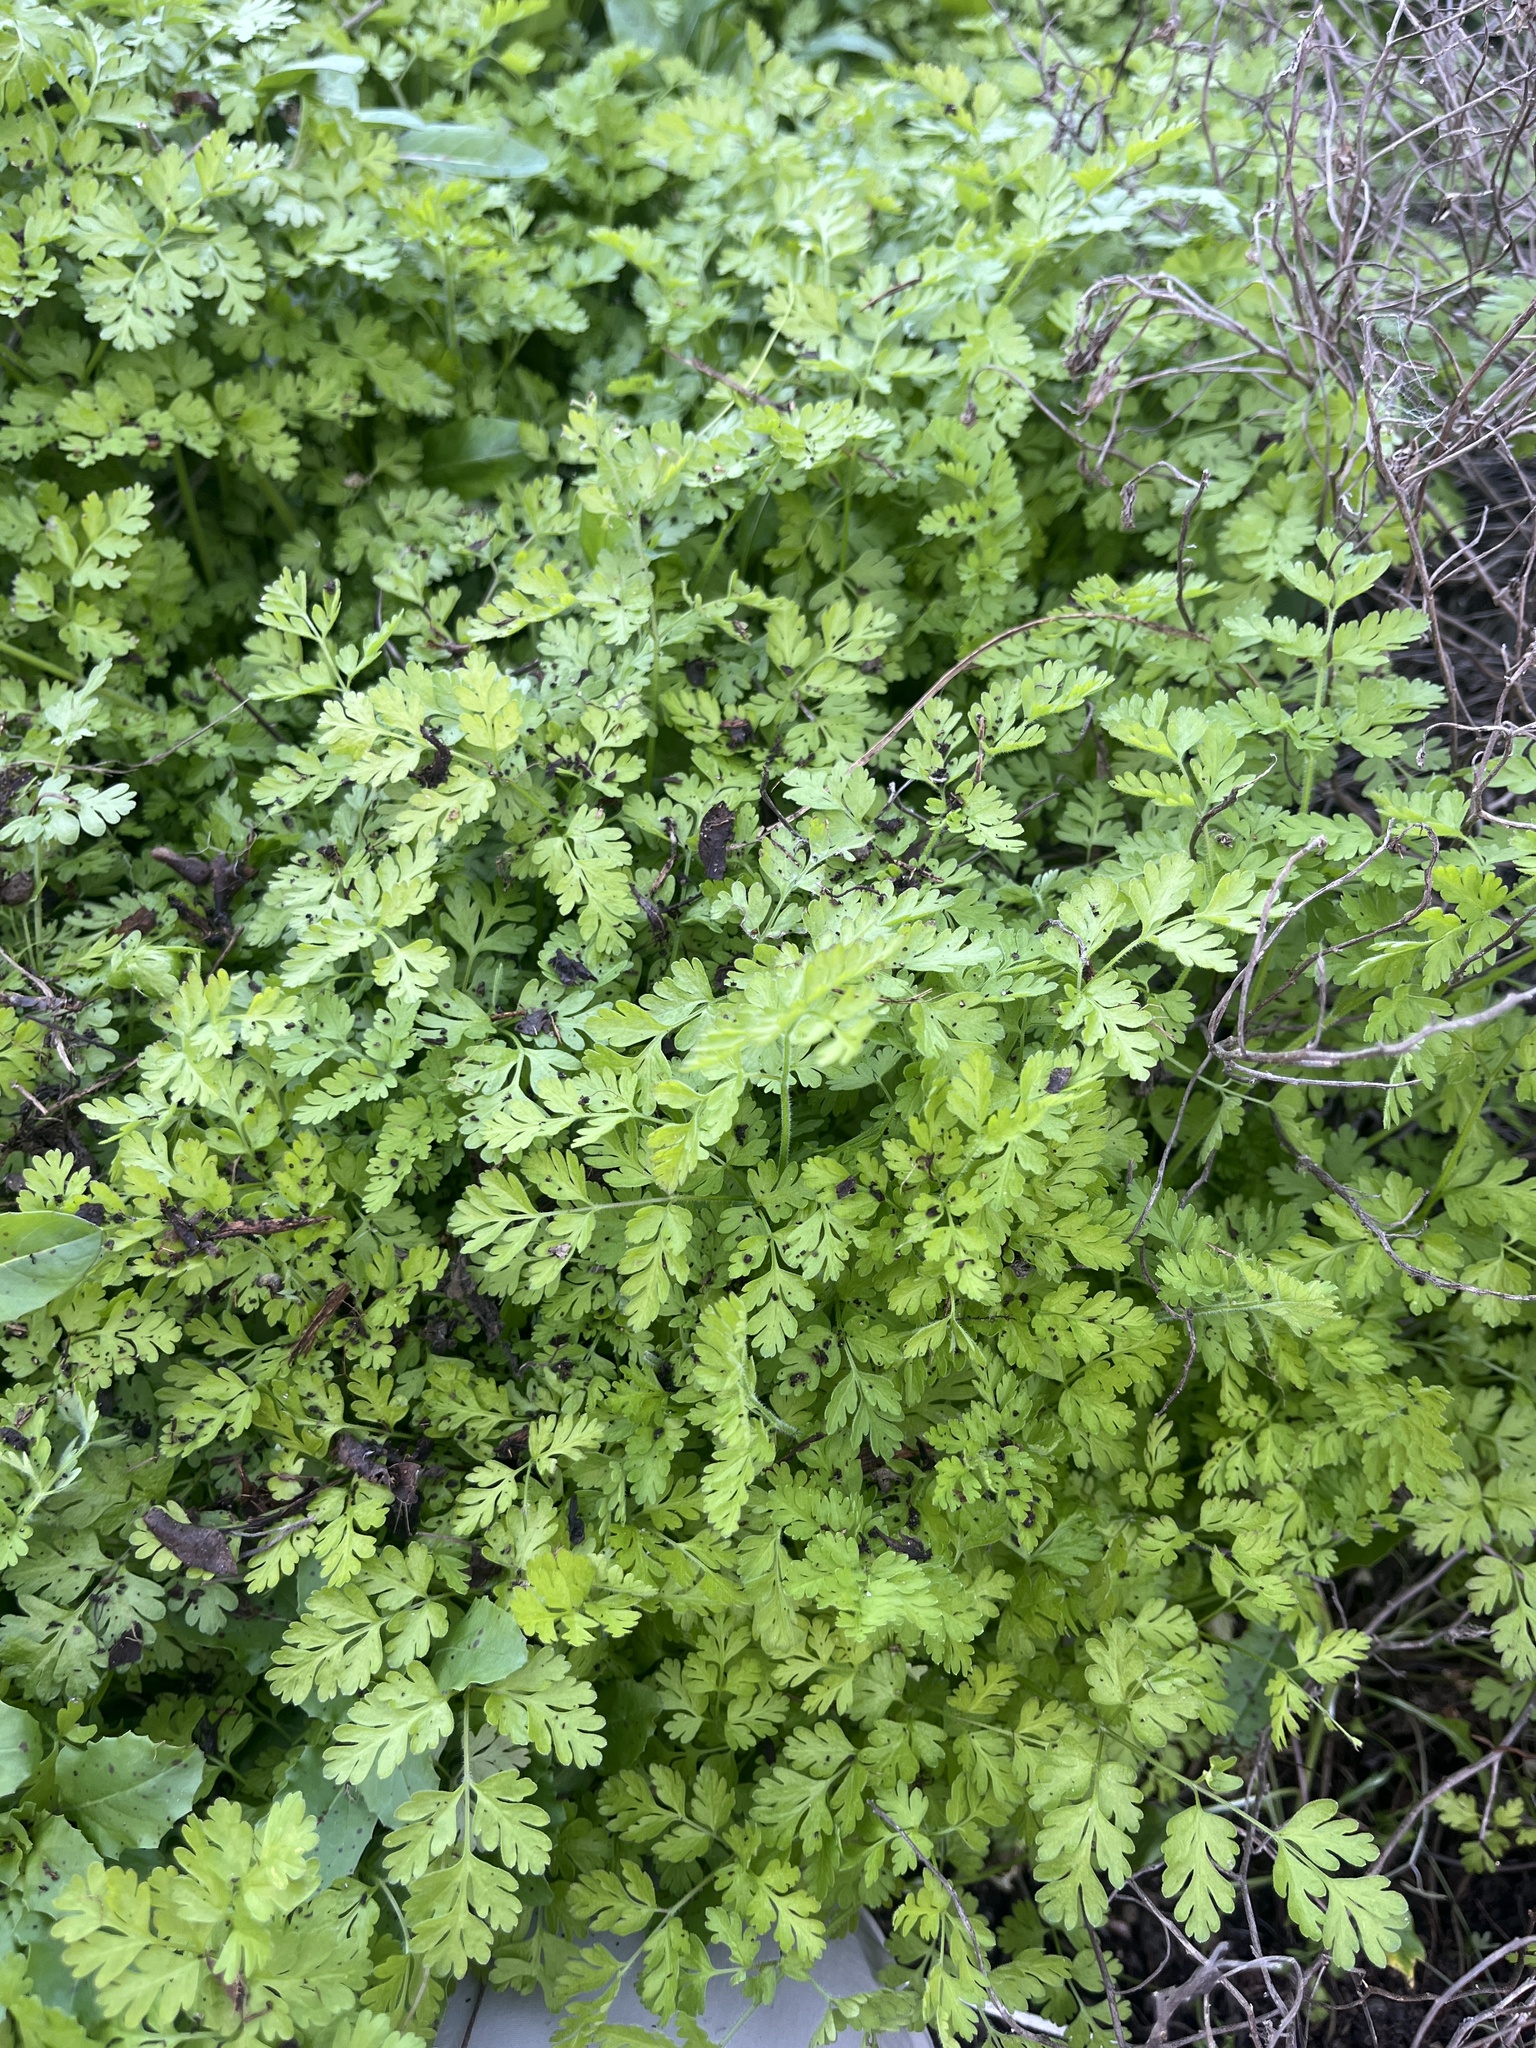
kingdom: Plantae
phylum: Tracheophyta
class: Magnoliopsida
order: Apiales
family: Apiaceae
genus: Chaerophyllum
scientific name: Chaerophyllum tainturieri
